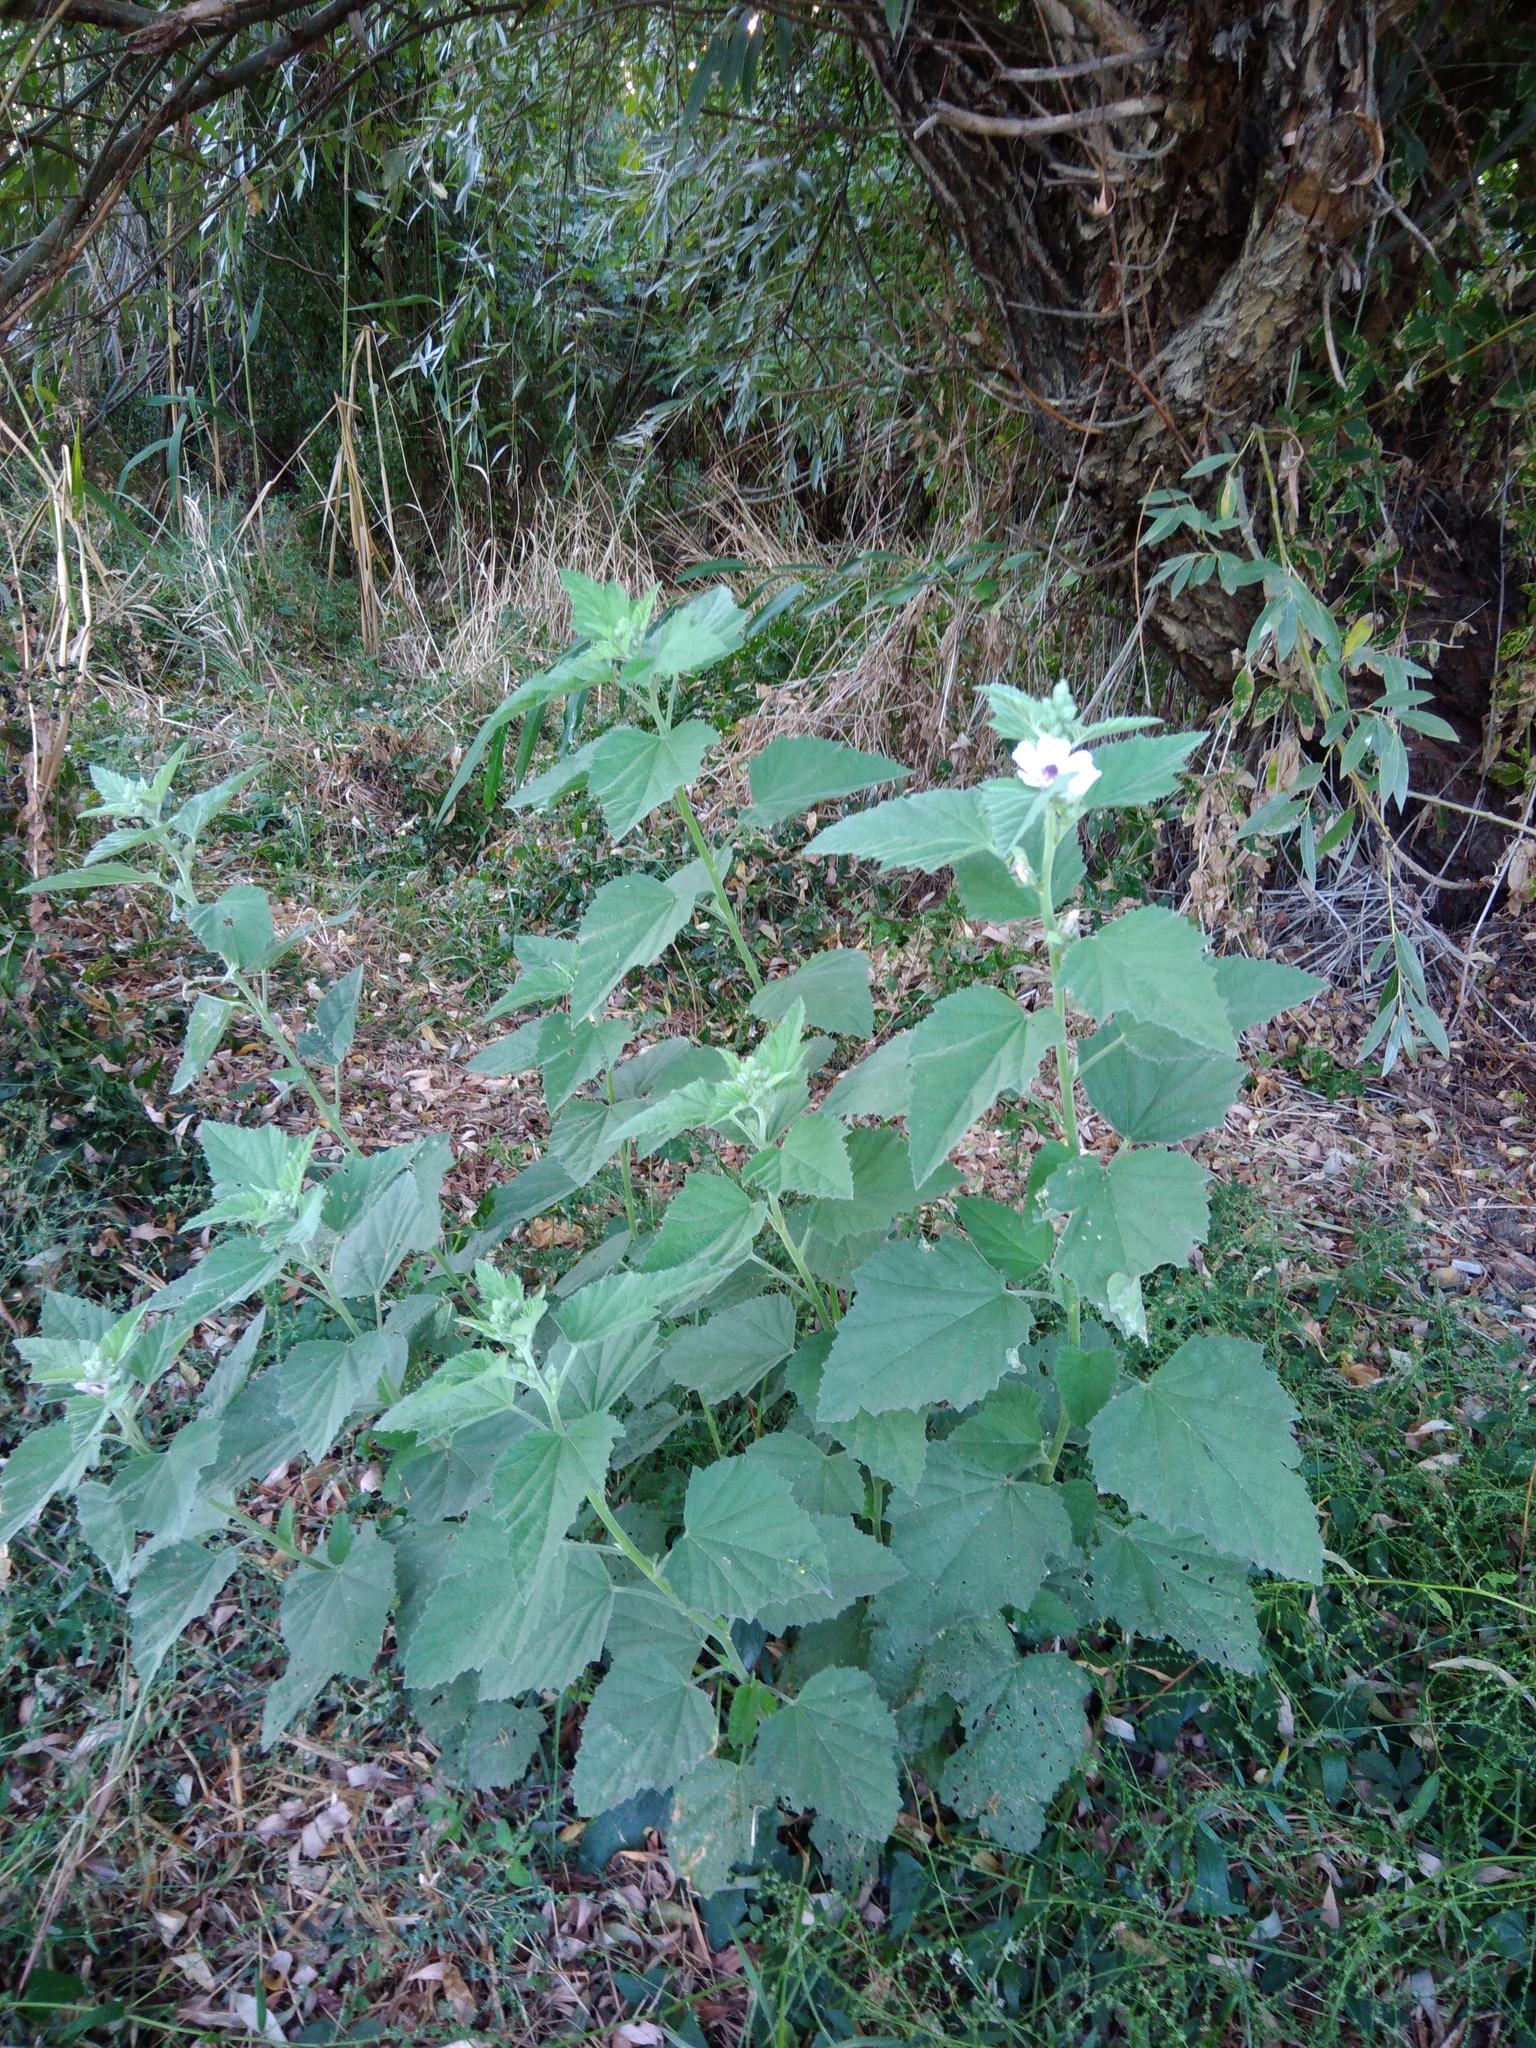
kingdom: Plantae
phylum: Tracheophyta
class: Magnoliopsida
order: Malvales
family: Malvaceae
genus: Althaea
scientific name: Althaea officinalis
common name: Marsh-mallow
